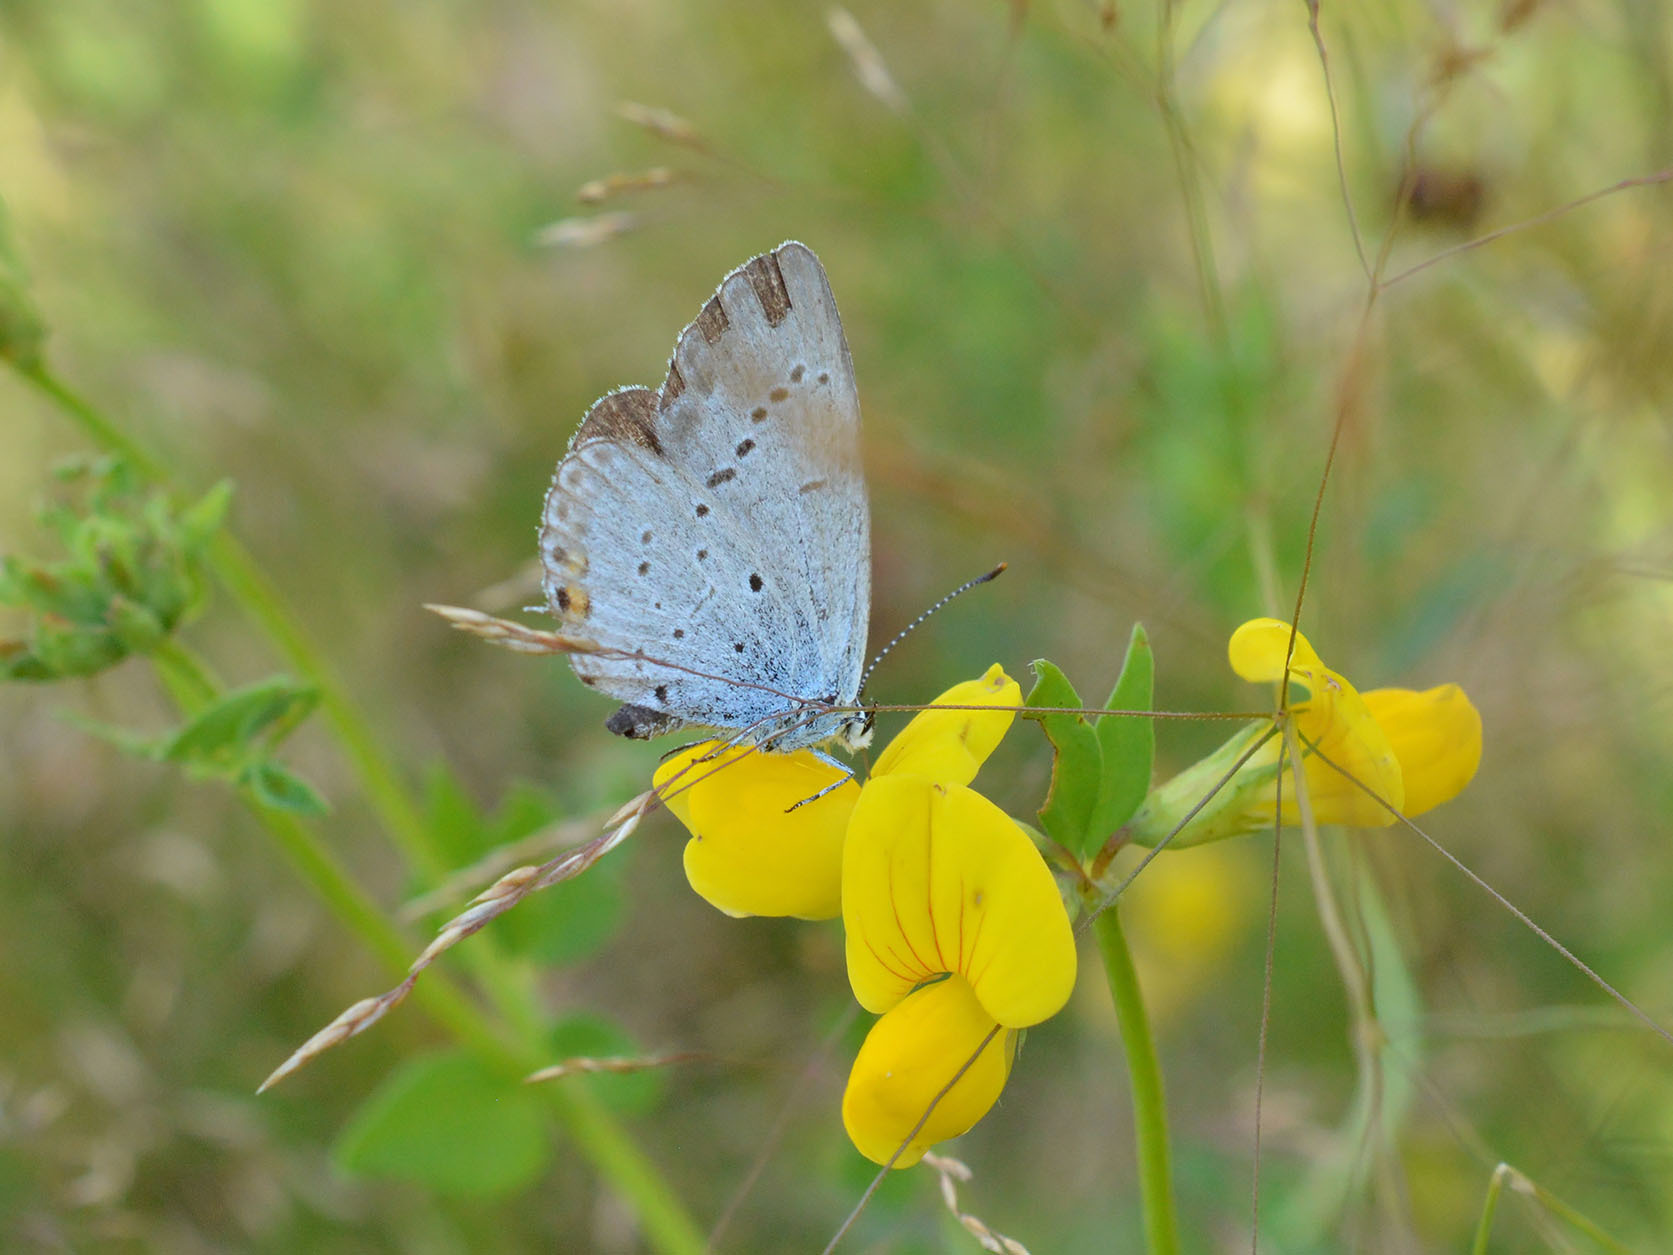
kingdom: Animalia
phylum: Arthropoda
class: Insecta
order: Lepidoptera
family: Lycaenidae
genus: Elkalyce
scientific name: Elkalyce argiades
